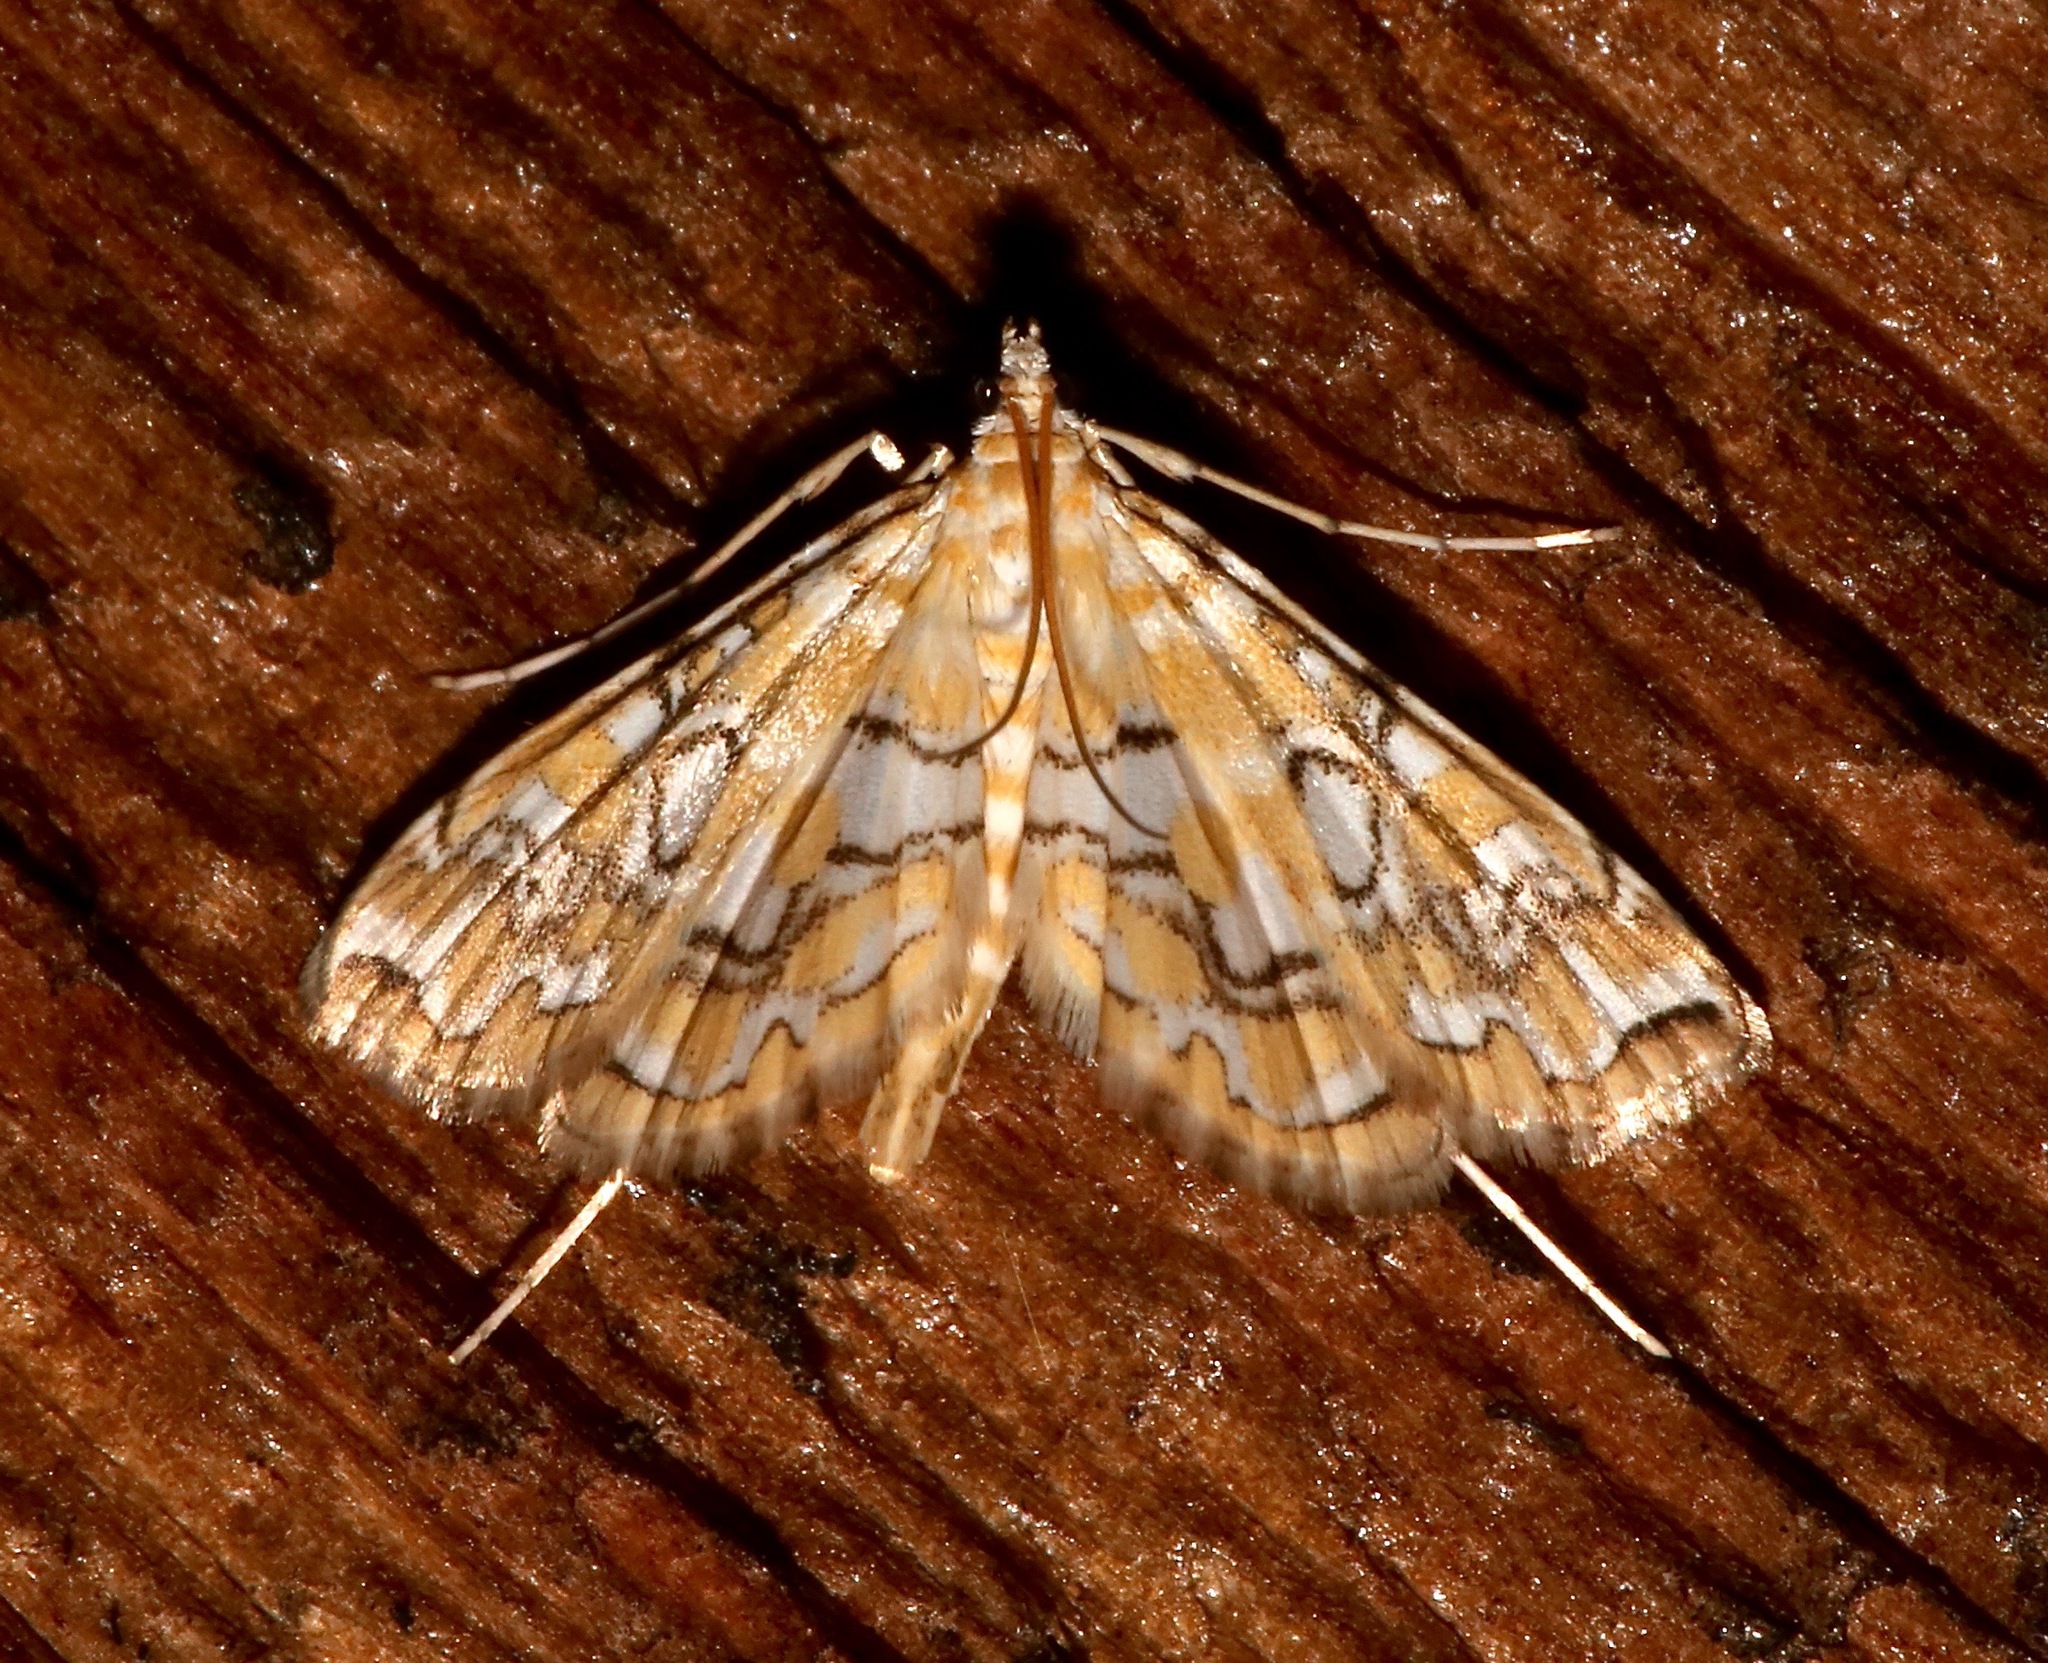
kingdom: Animalia
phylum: Arthropoda
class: Insecta
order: Lepidoptera
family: Crambidae
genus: Elophila
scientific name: Elophila icciusalis
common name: Pondside pyralid moth
